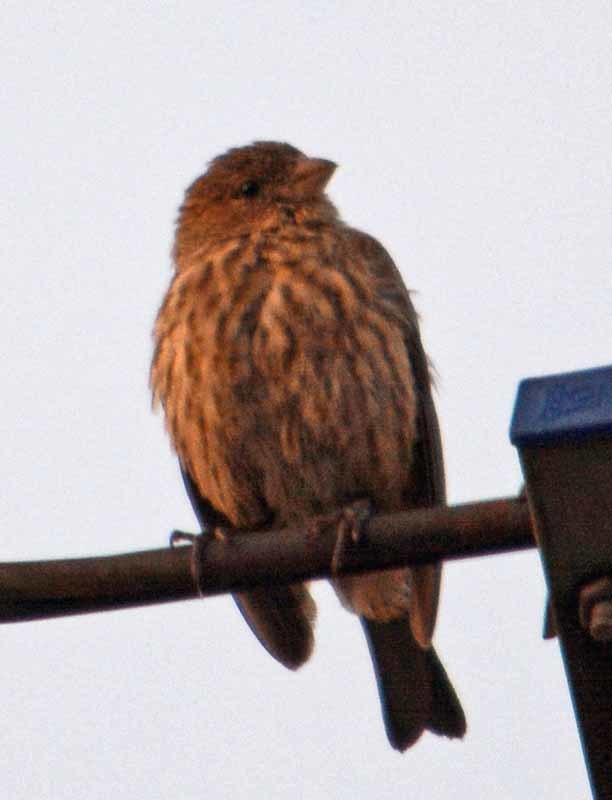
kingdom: Animalia
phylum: Chordata
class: Aves
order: Passeriformes
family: Fringillidae
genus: Haemorhous
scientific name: Haemorhous mexicanus
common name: House finch
